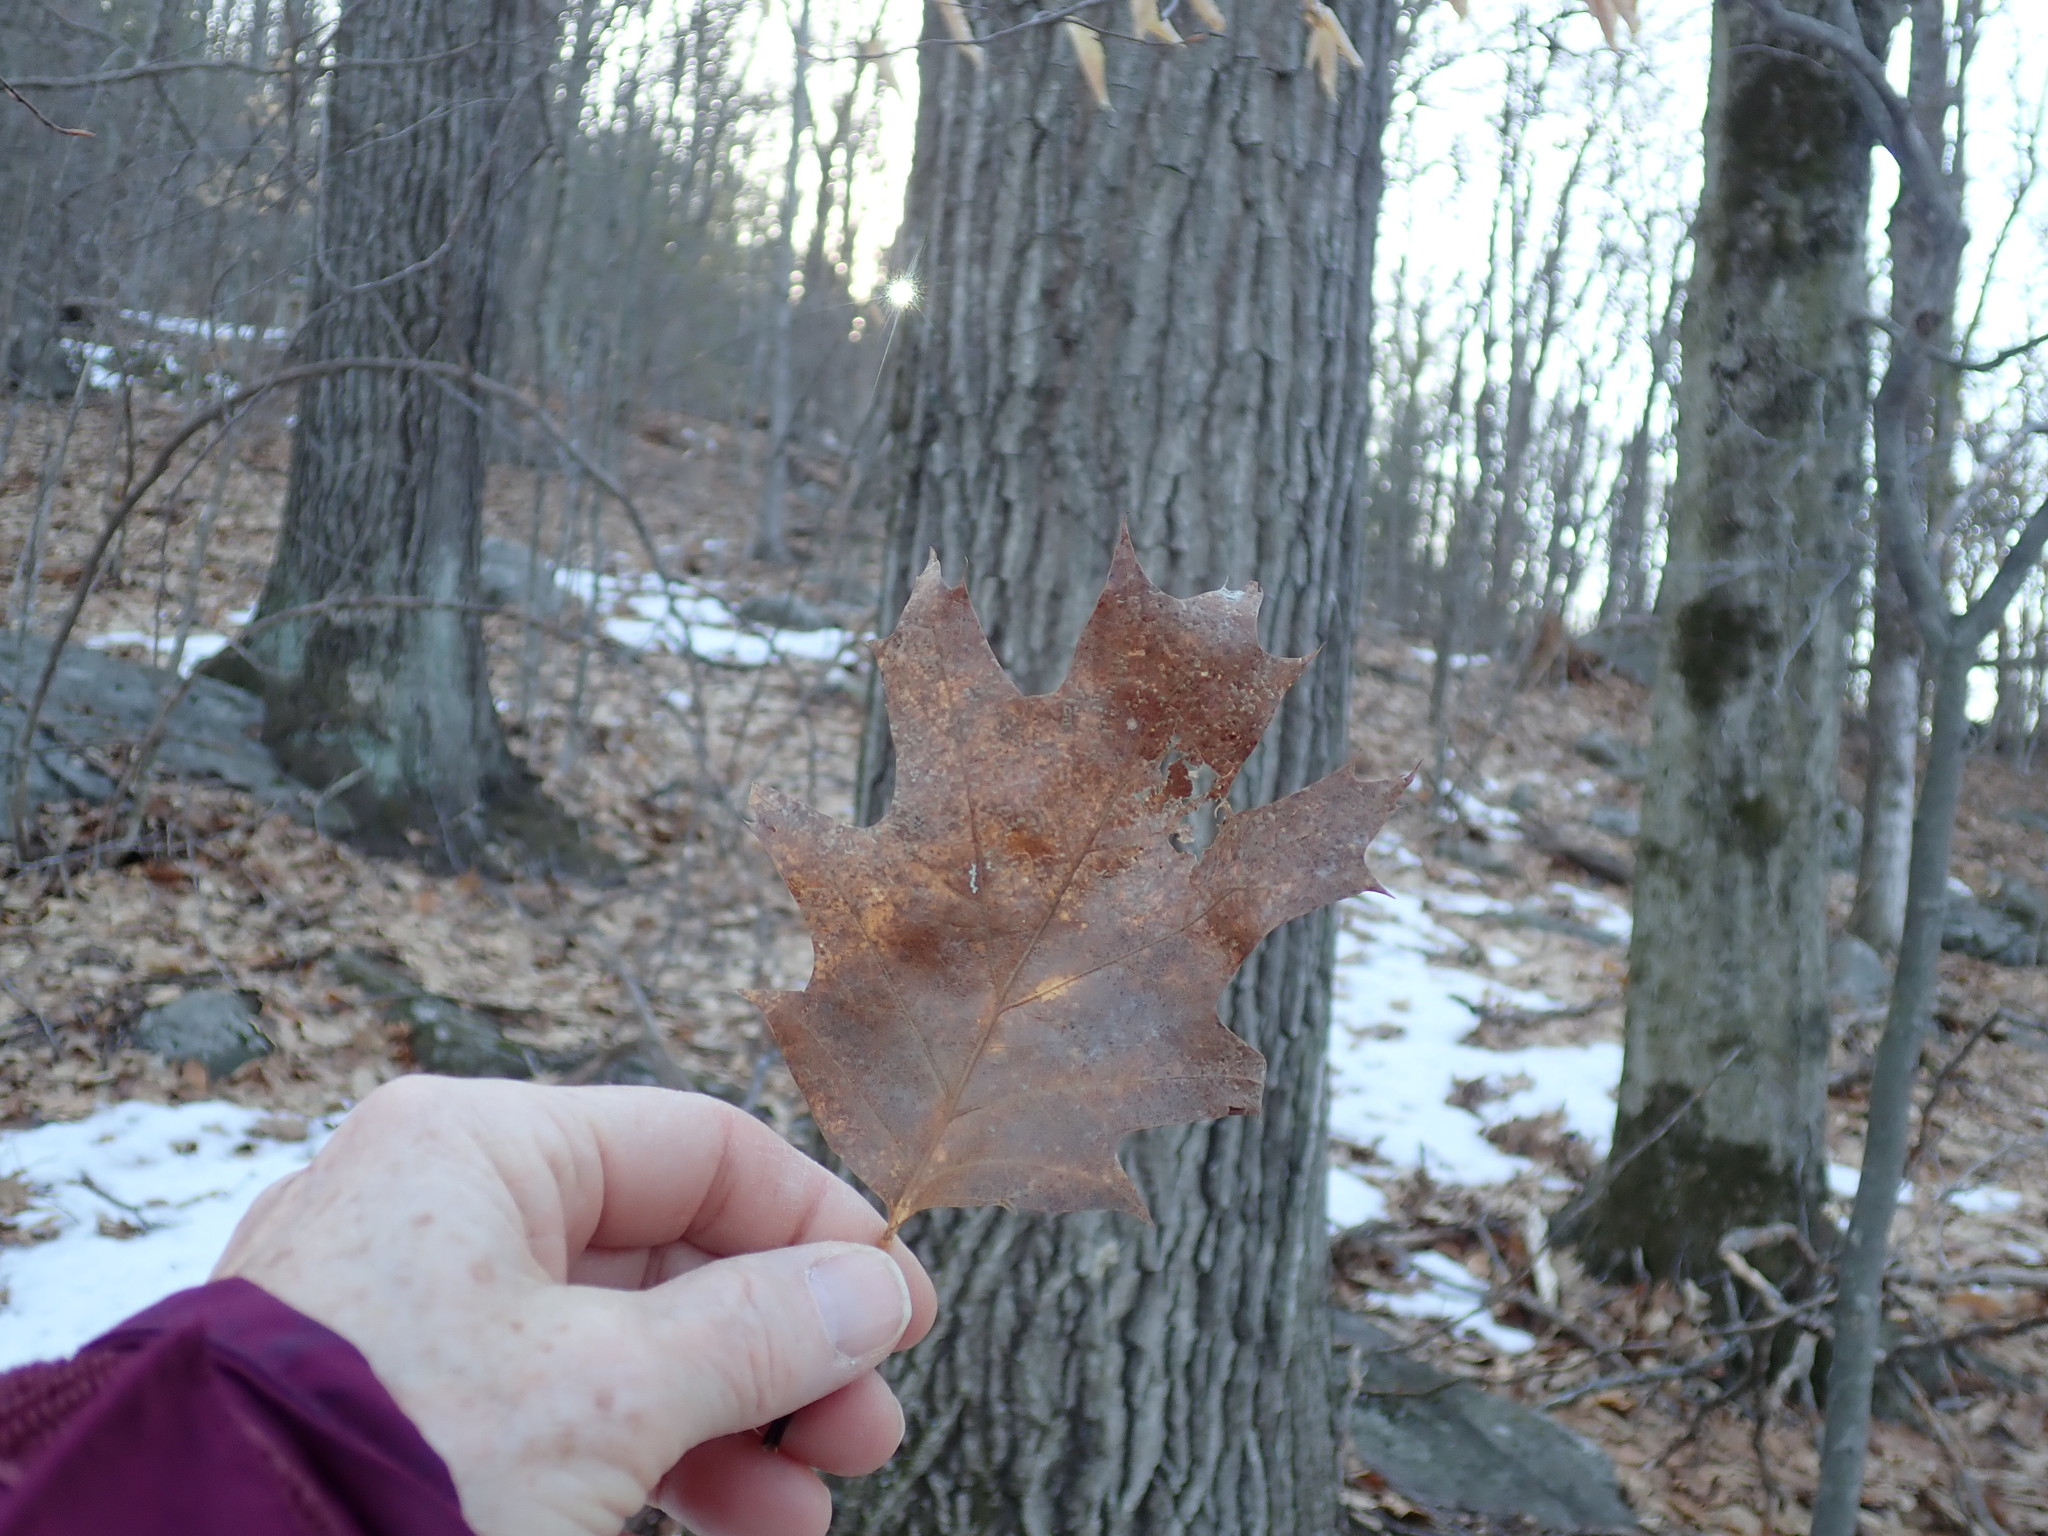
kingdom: Plantae
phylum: Tracheophyta
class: Magnoliopsida
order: Fagales
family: Fagaceae
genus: Quercus
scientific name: Quercus rubra
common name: Red oak
